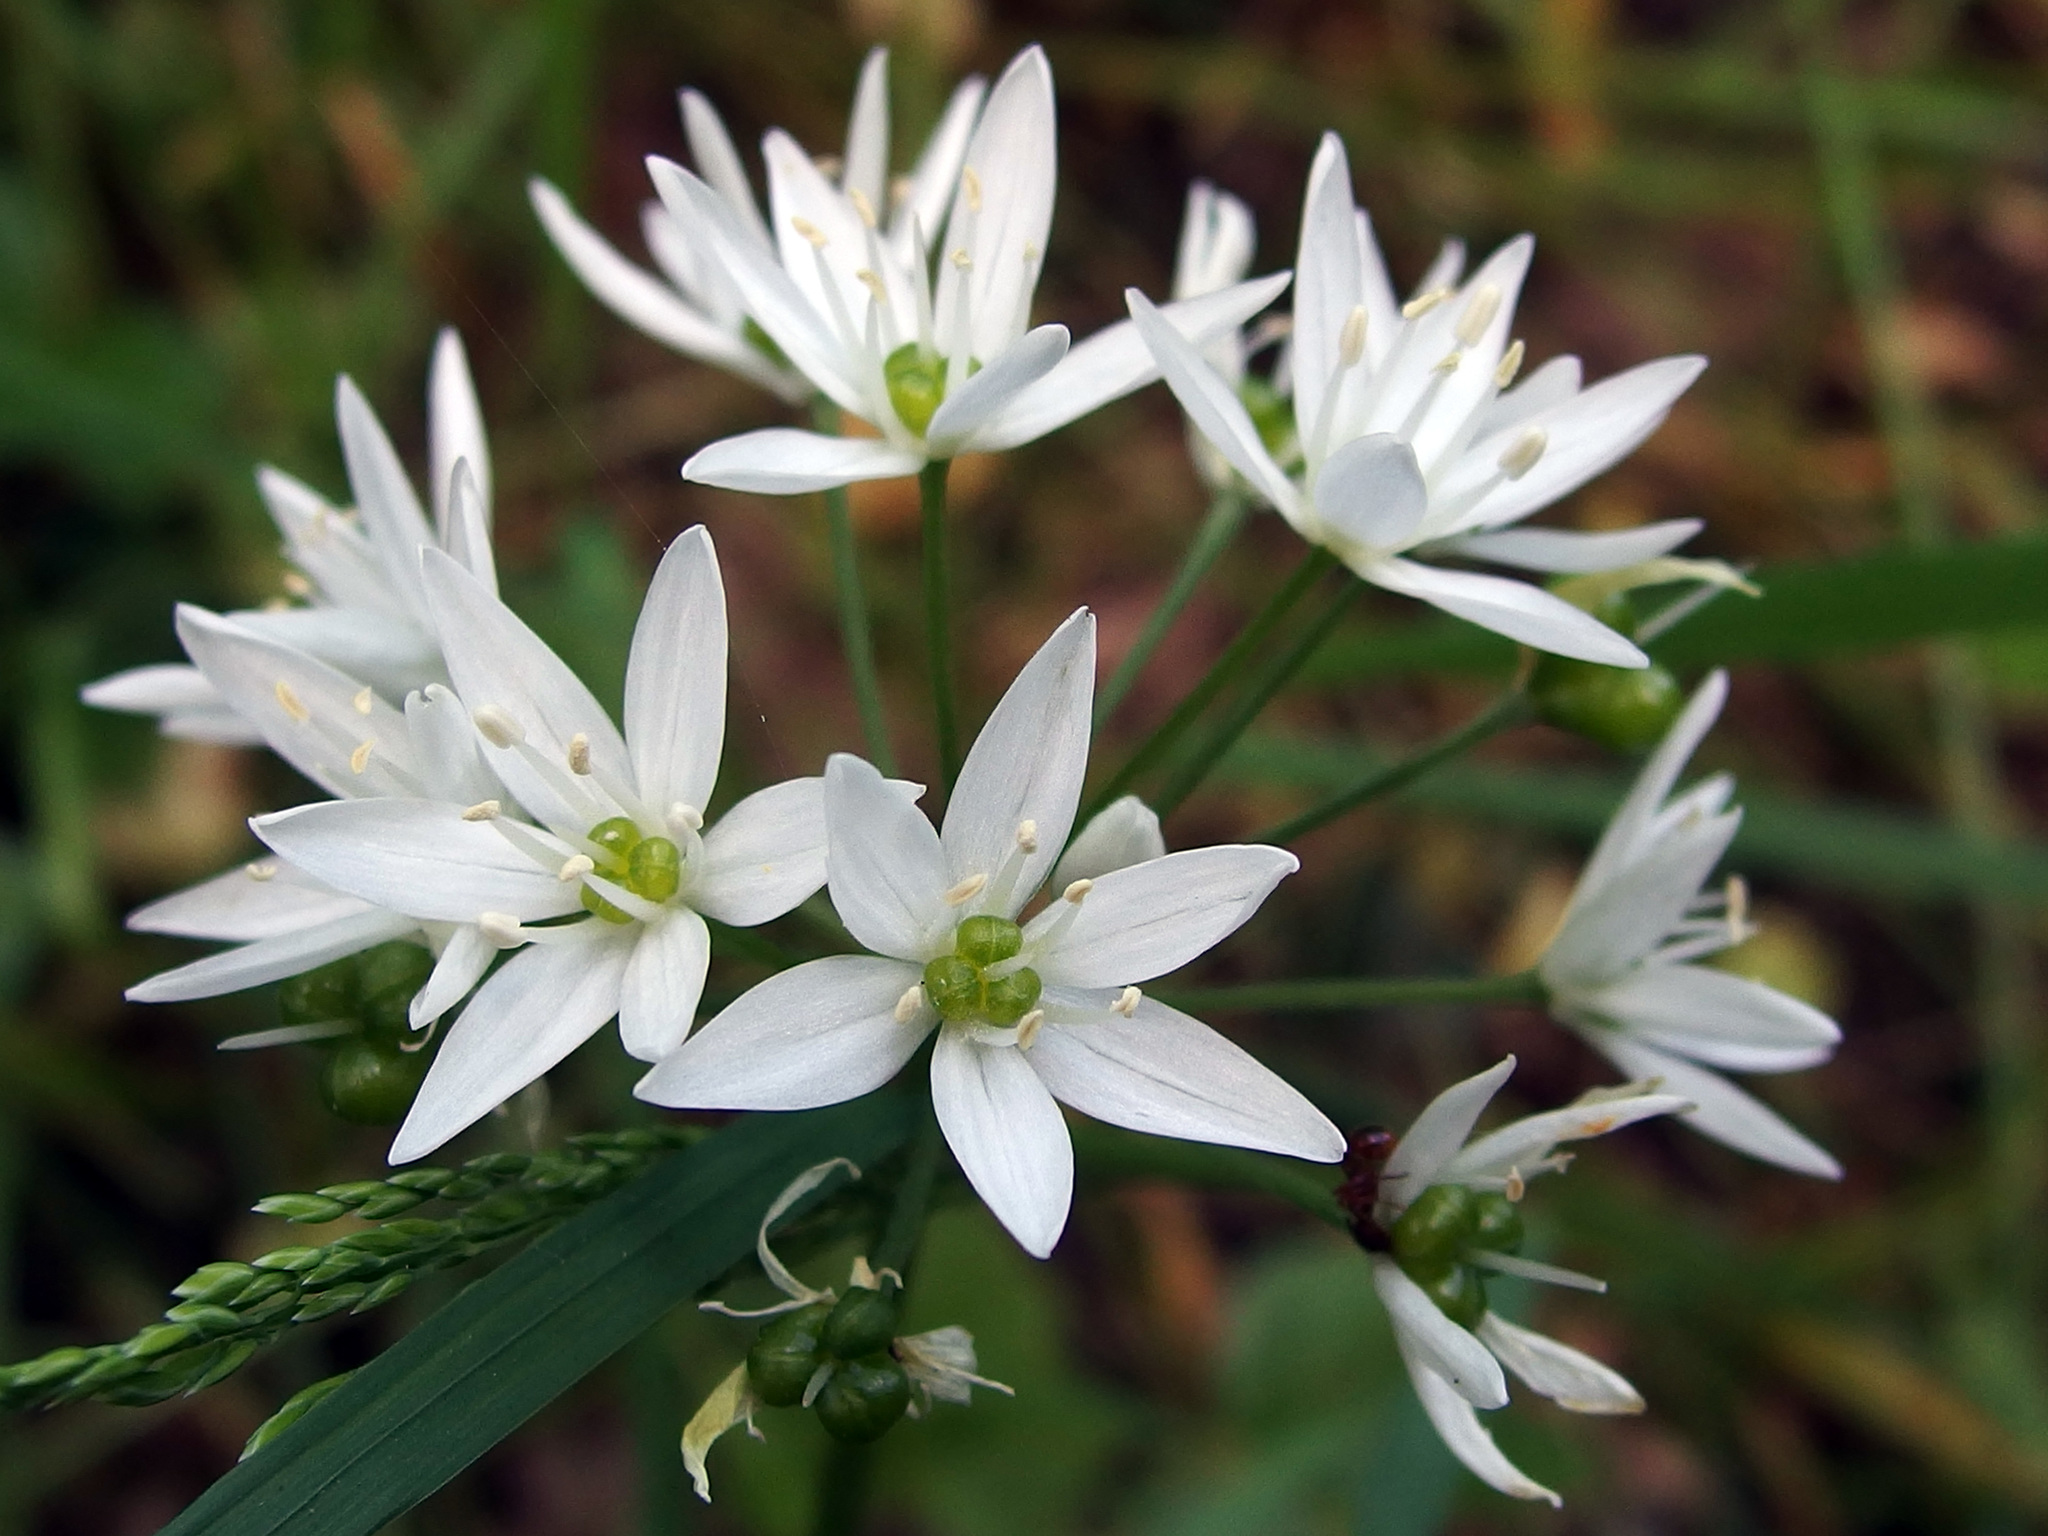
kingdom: Plantae
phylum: Tracheophyta
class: Liliopsida
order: Asparagales
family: Amaryllidaceae
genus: Allium
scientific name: Allium ursinum
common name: Ramsons
